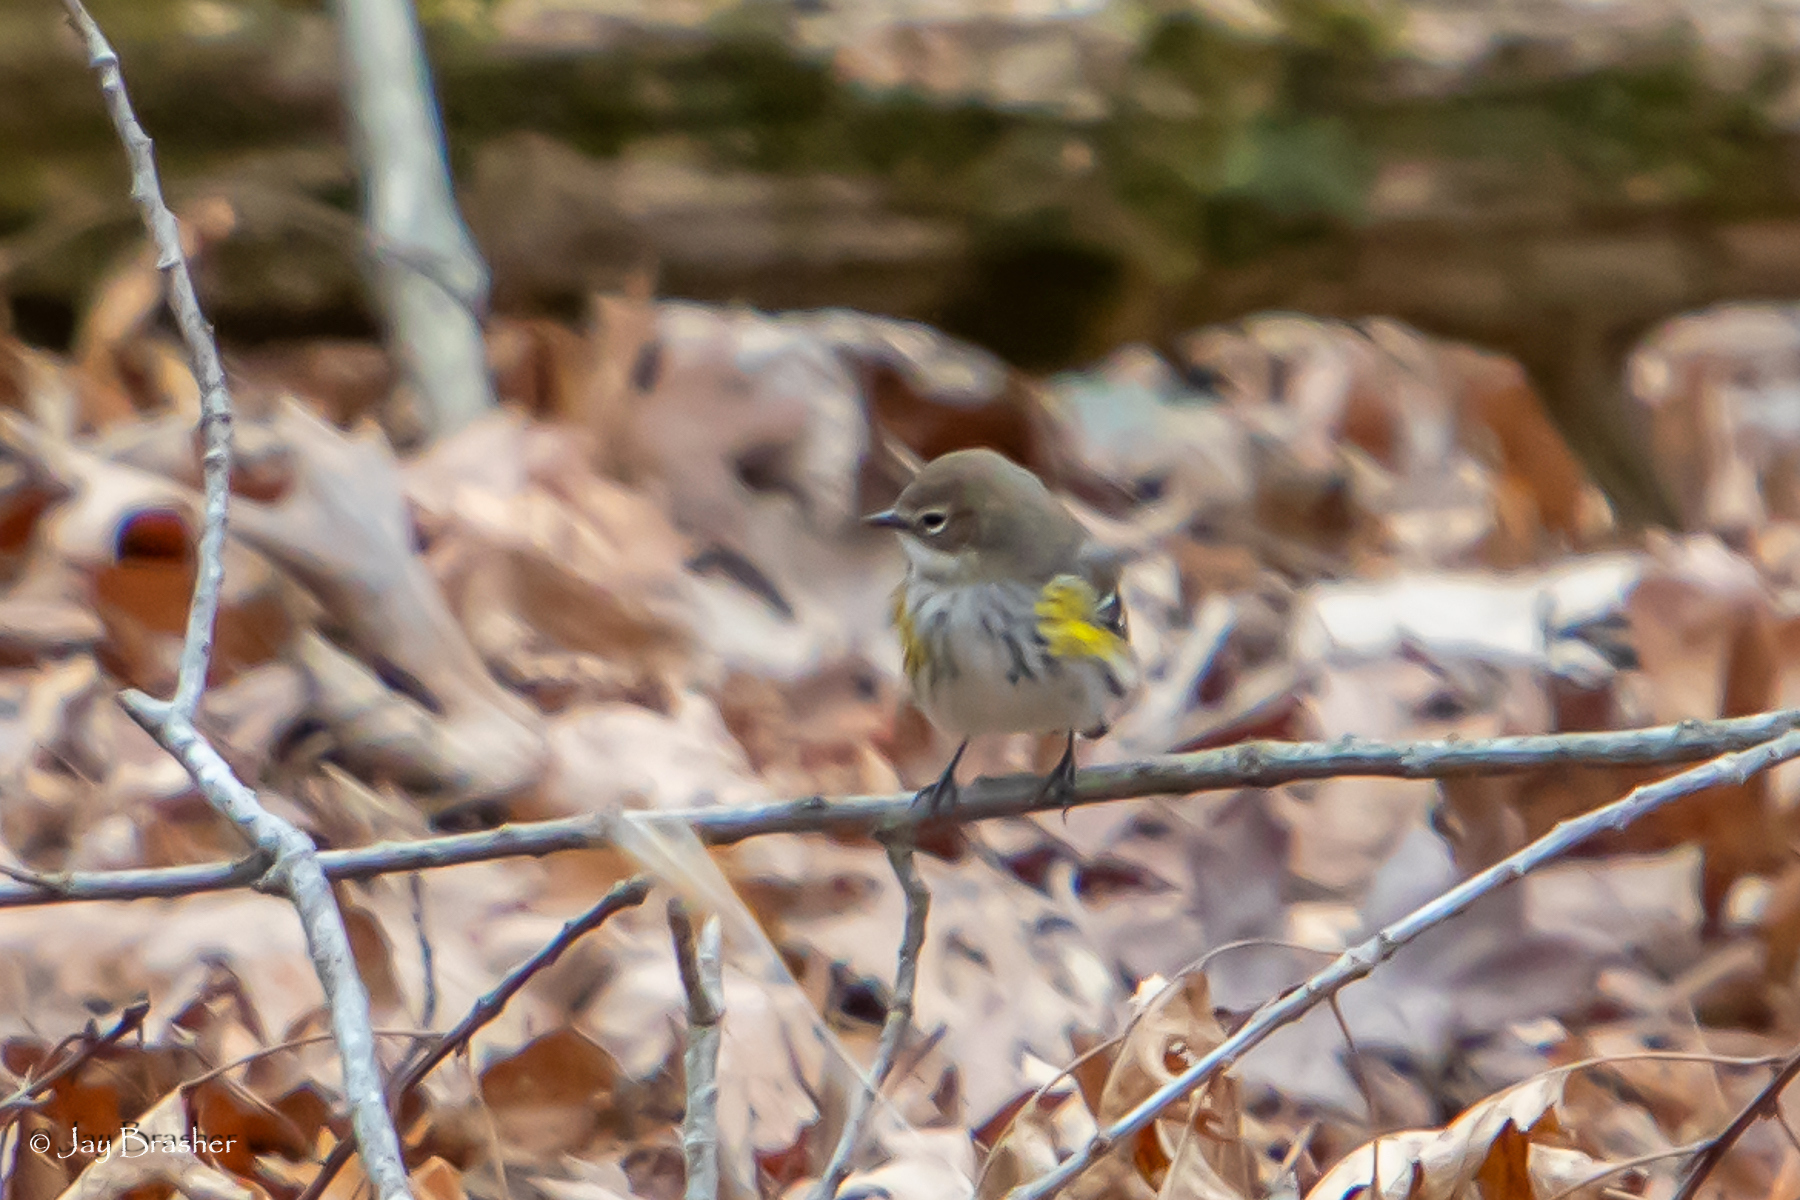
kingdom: Animalia
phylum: Chordata
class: Aves
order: Passeriformes
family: Parulidae
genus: Setophaga
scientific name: Setophaga coronata
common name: Myrtle warbler
